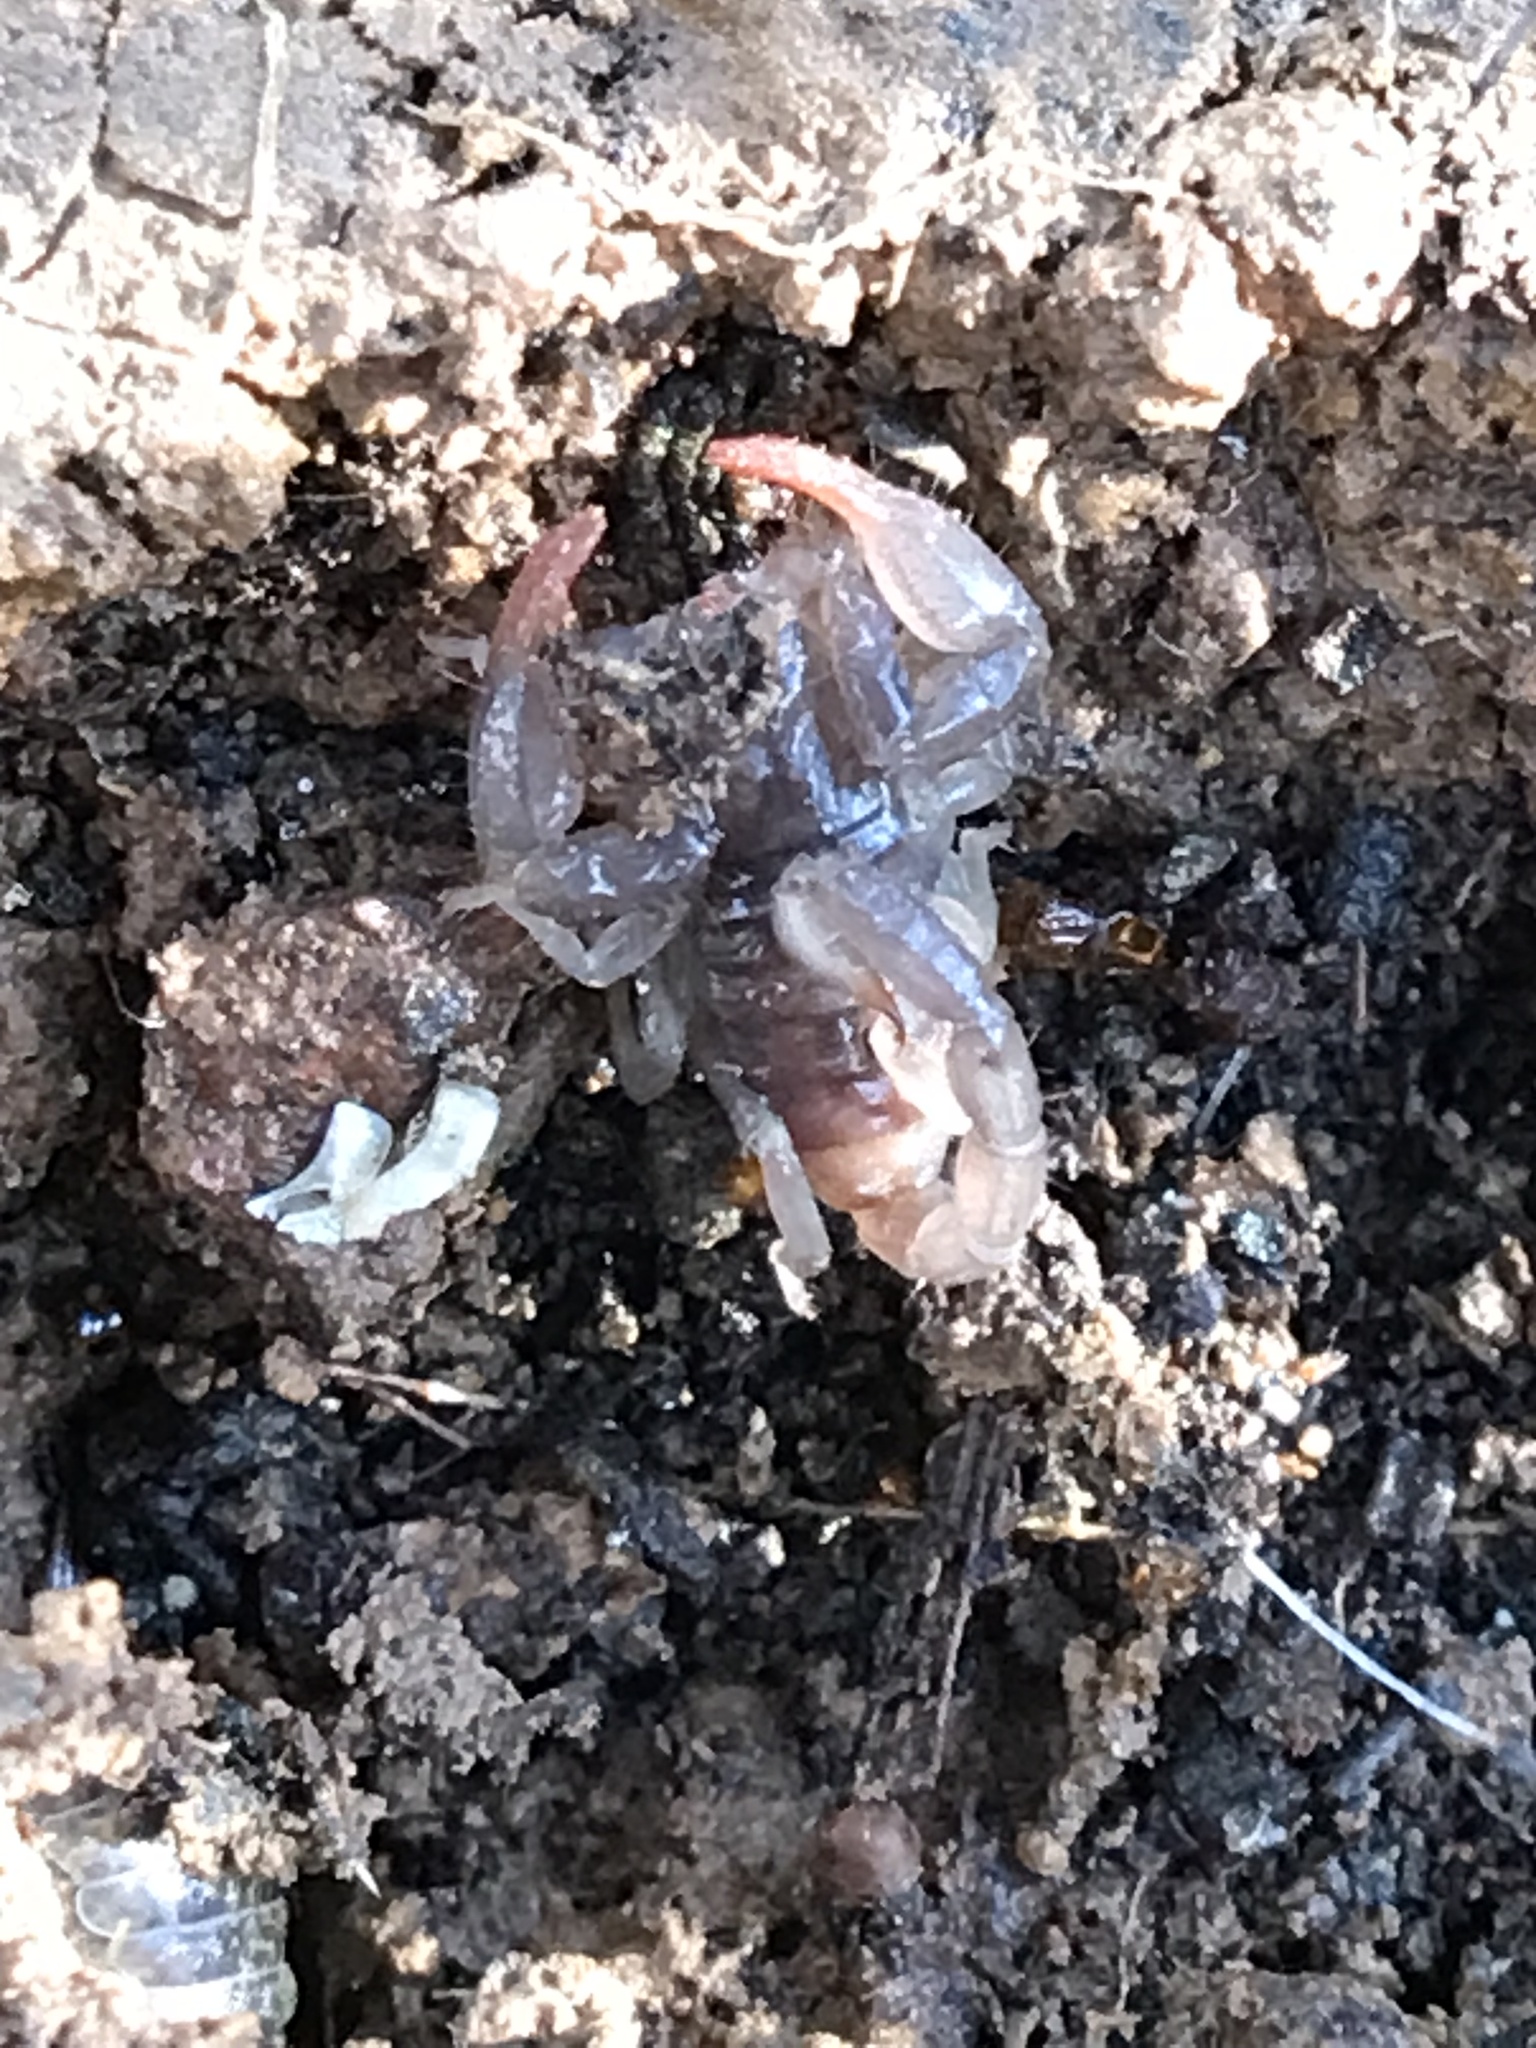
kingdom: Animalia
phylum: Arthropoda
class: Arachnida
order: Scorpiones
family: Chactidae
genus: Uroctonus
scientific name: Uroctonus mordax
